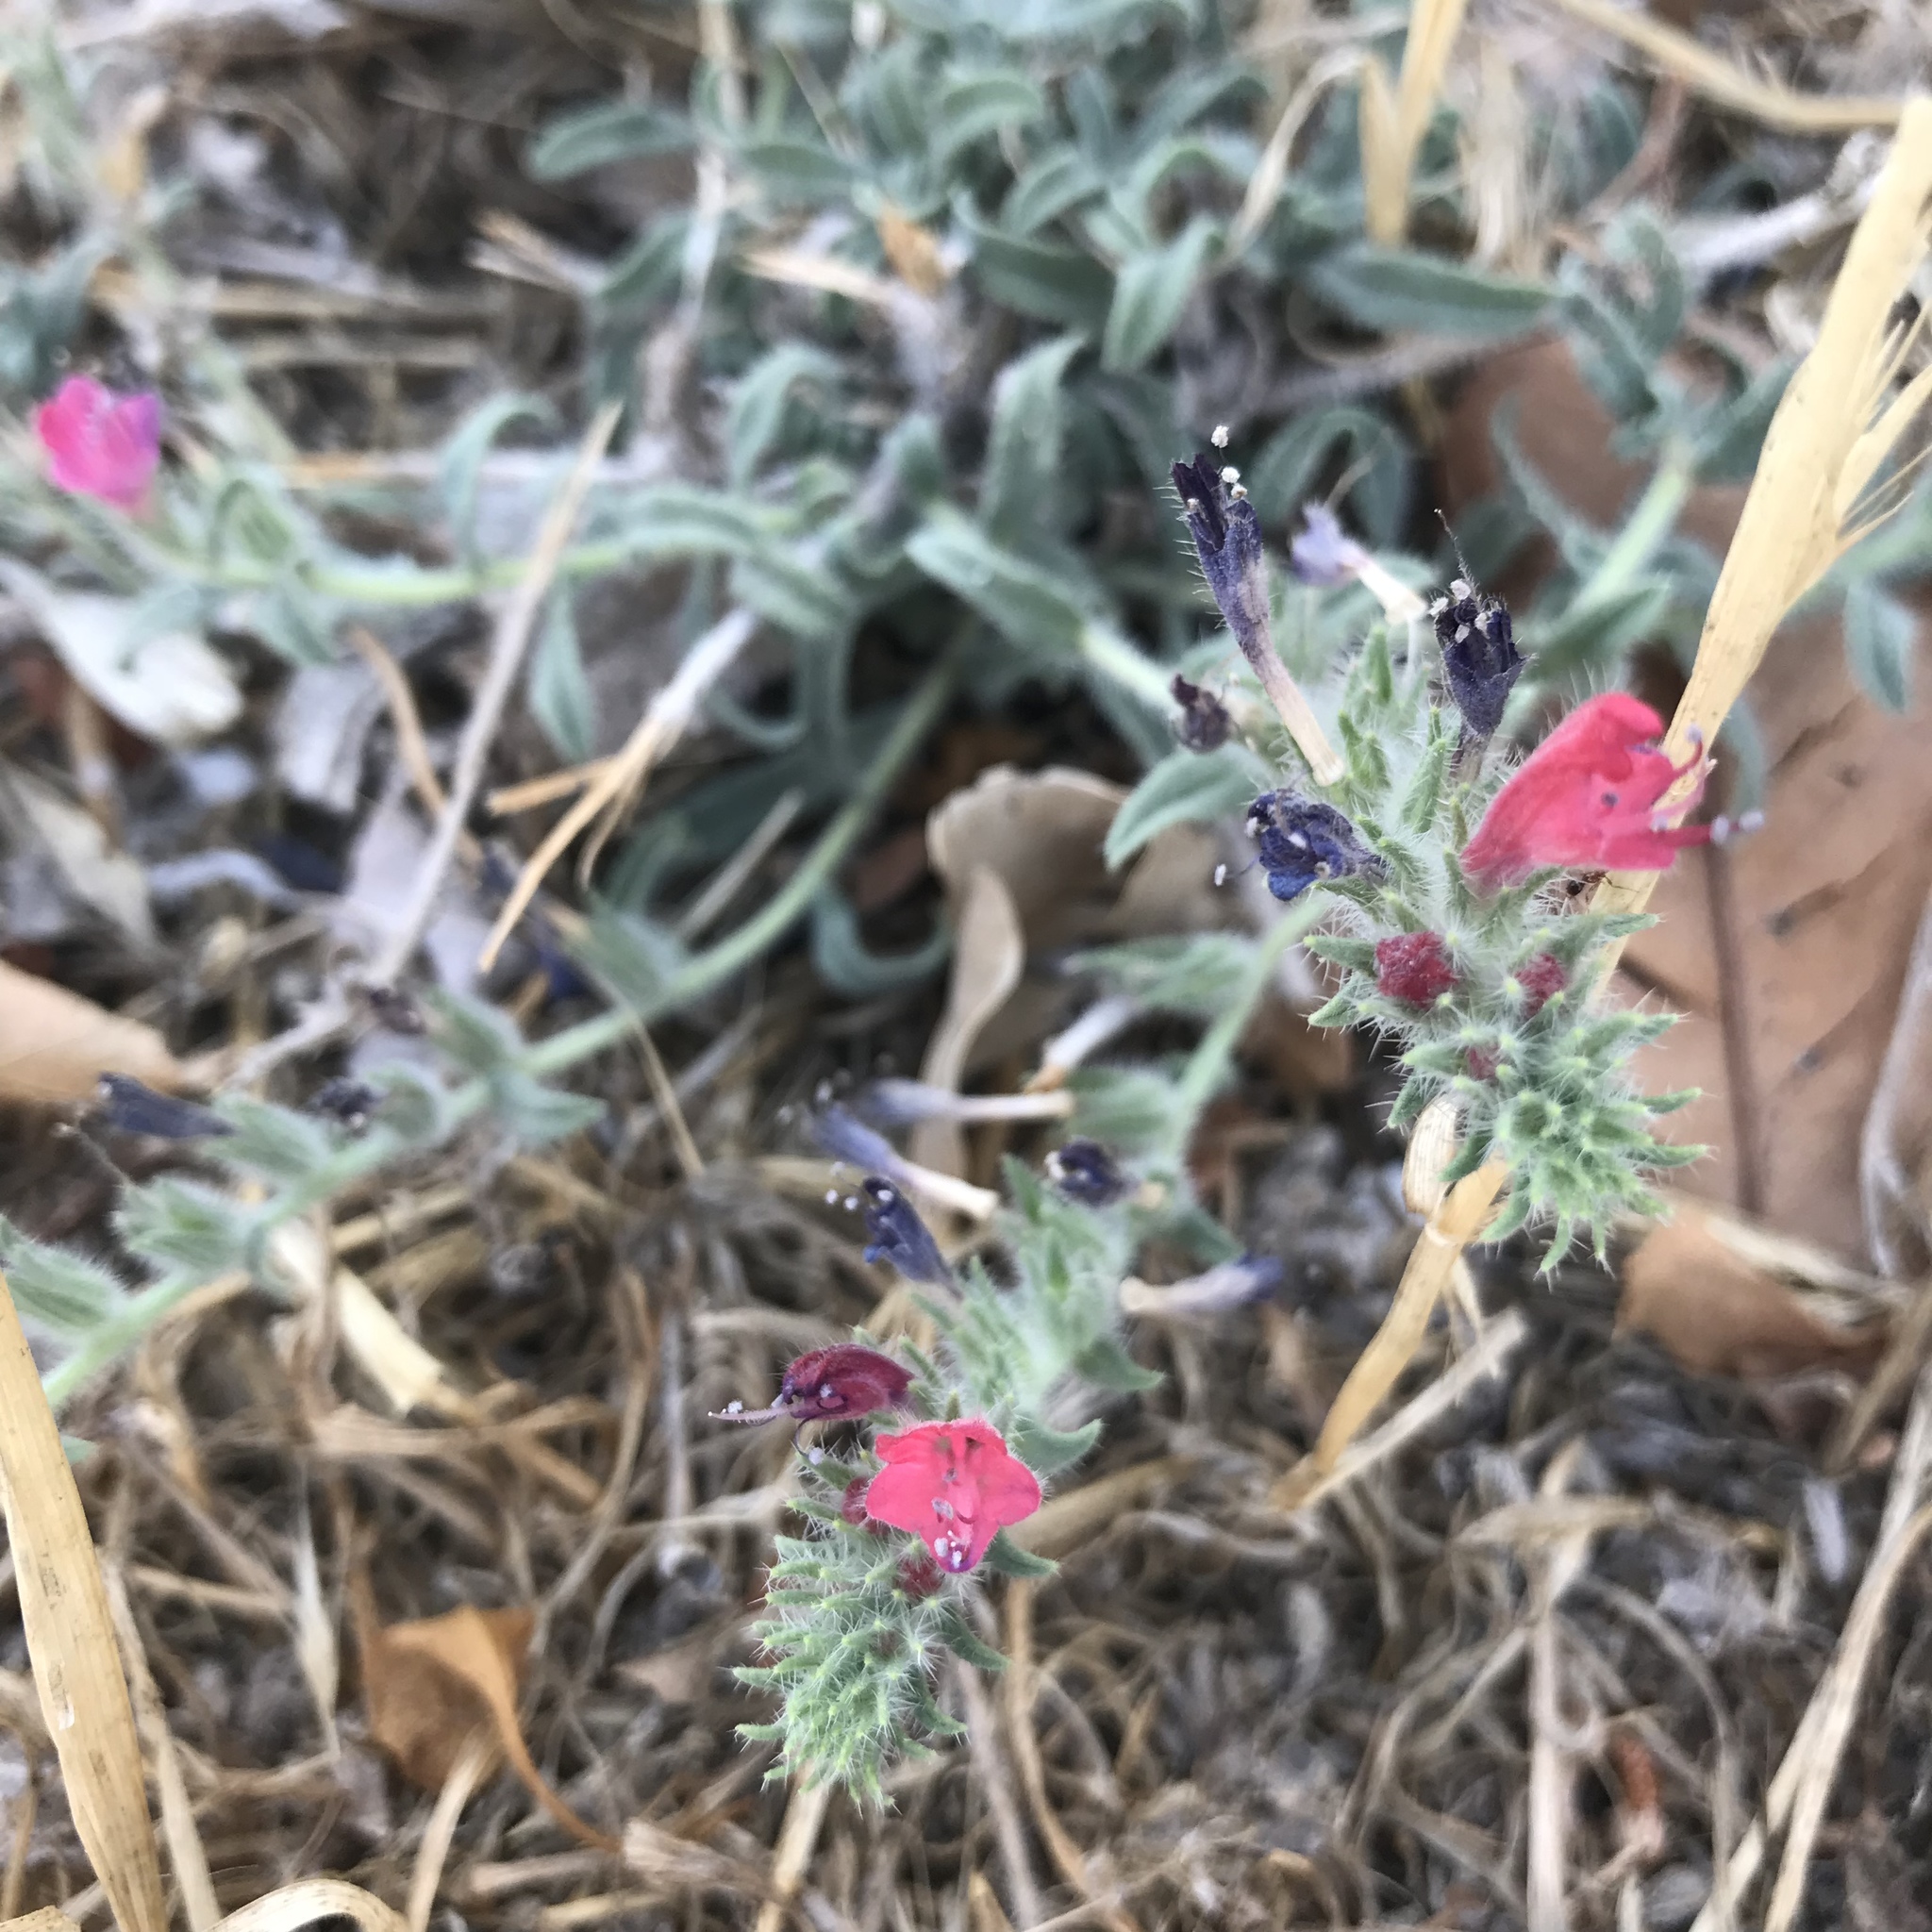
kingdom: Plantae
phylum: Tracheophyta
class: Magnoliopsida
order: Boraginales
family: Boraginaceae
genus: Echium
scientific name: Echium angustifolium
